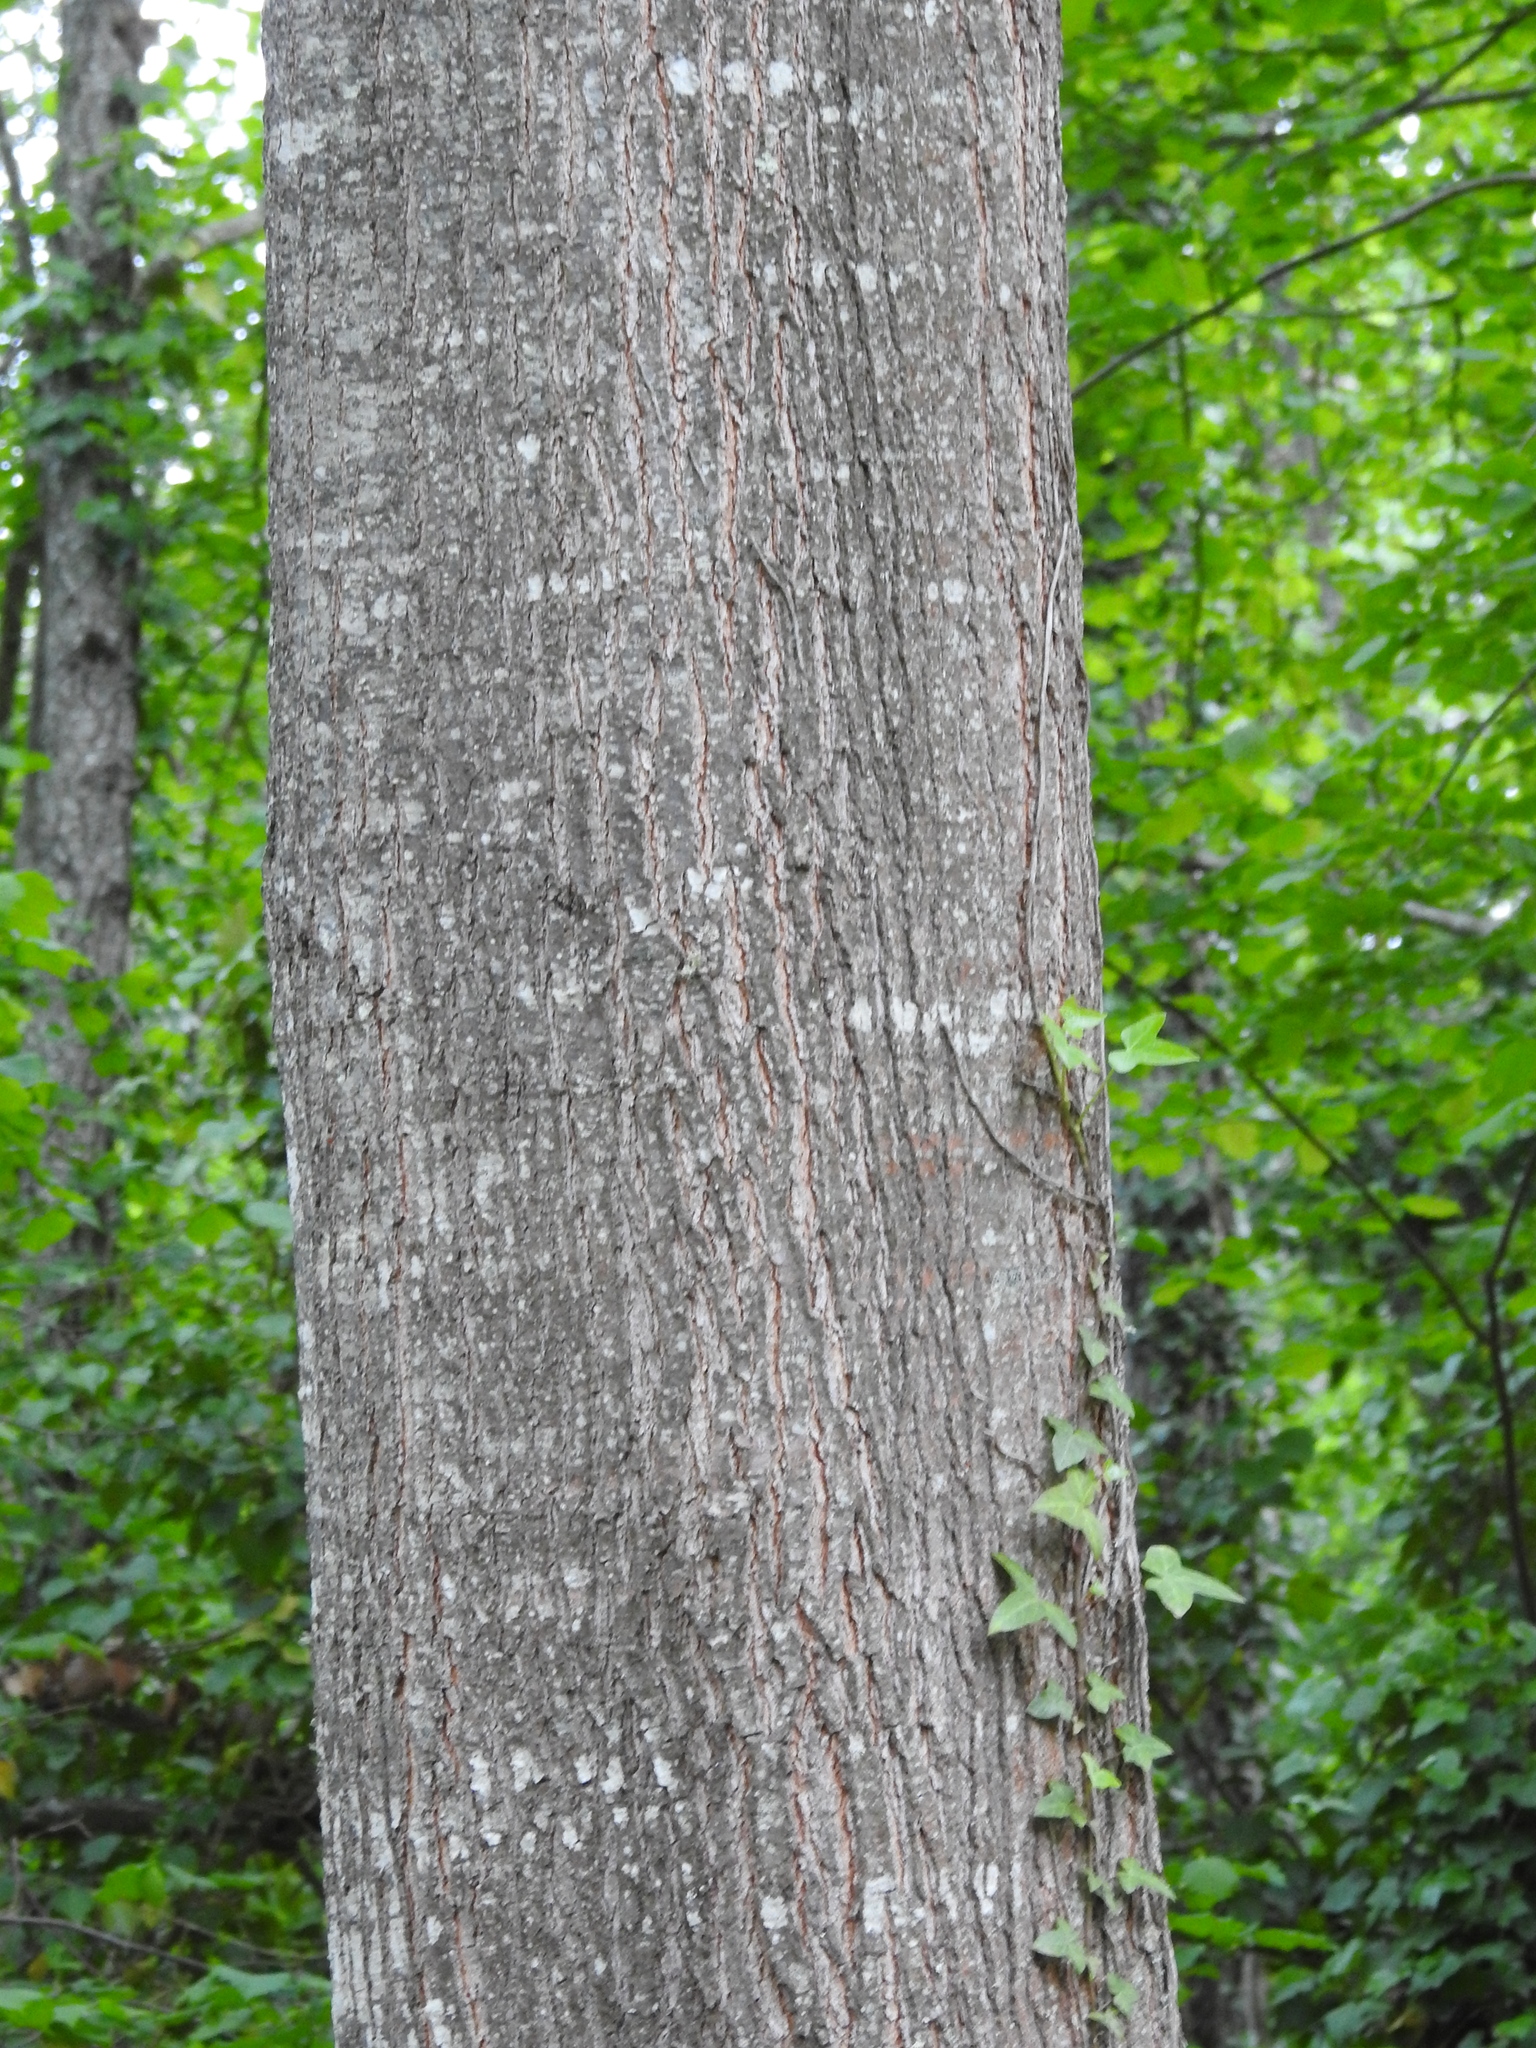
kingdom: Plantae
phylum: Tracheophyta
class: Magnoliopsida
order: Fagales
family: Fagaceae
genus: Quercus
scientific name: Quercus rubra
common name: Red oak
